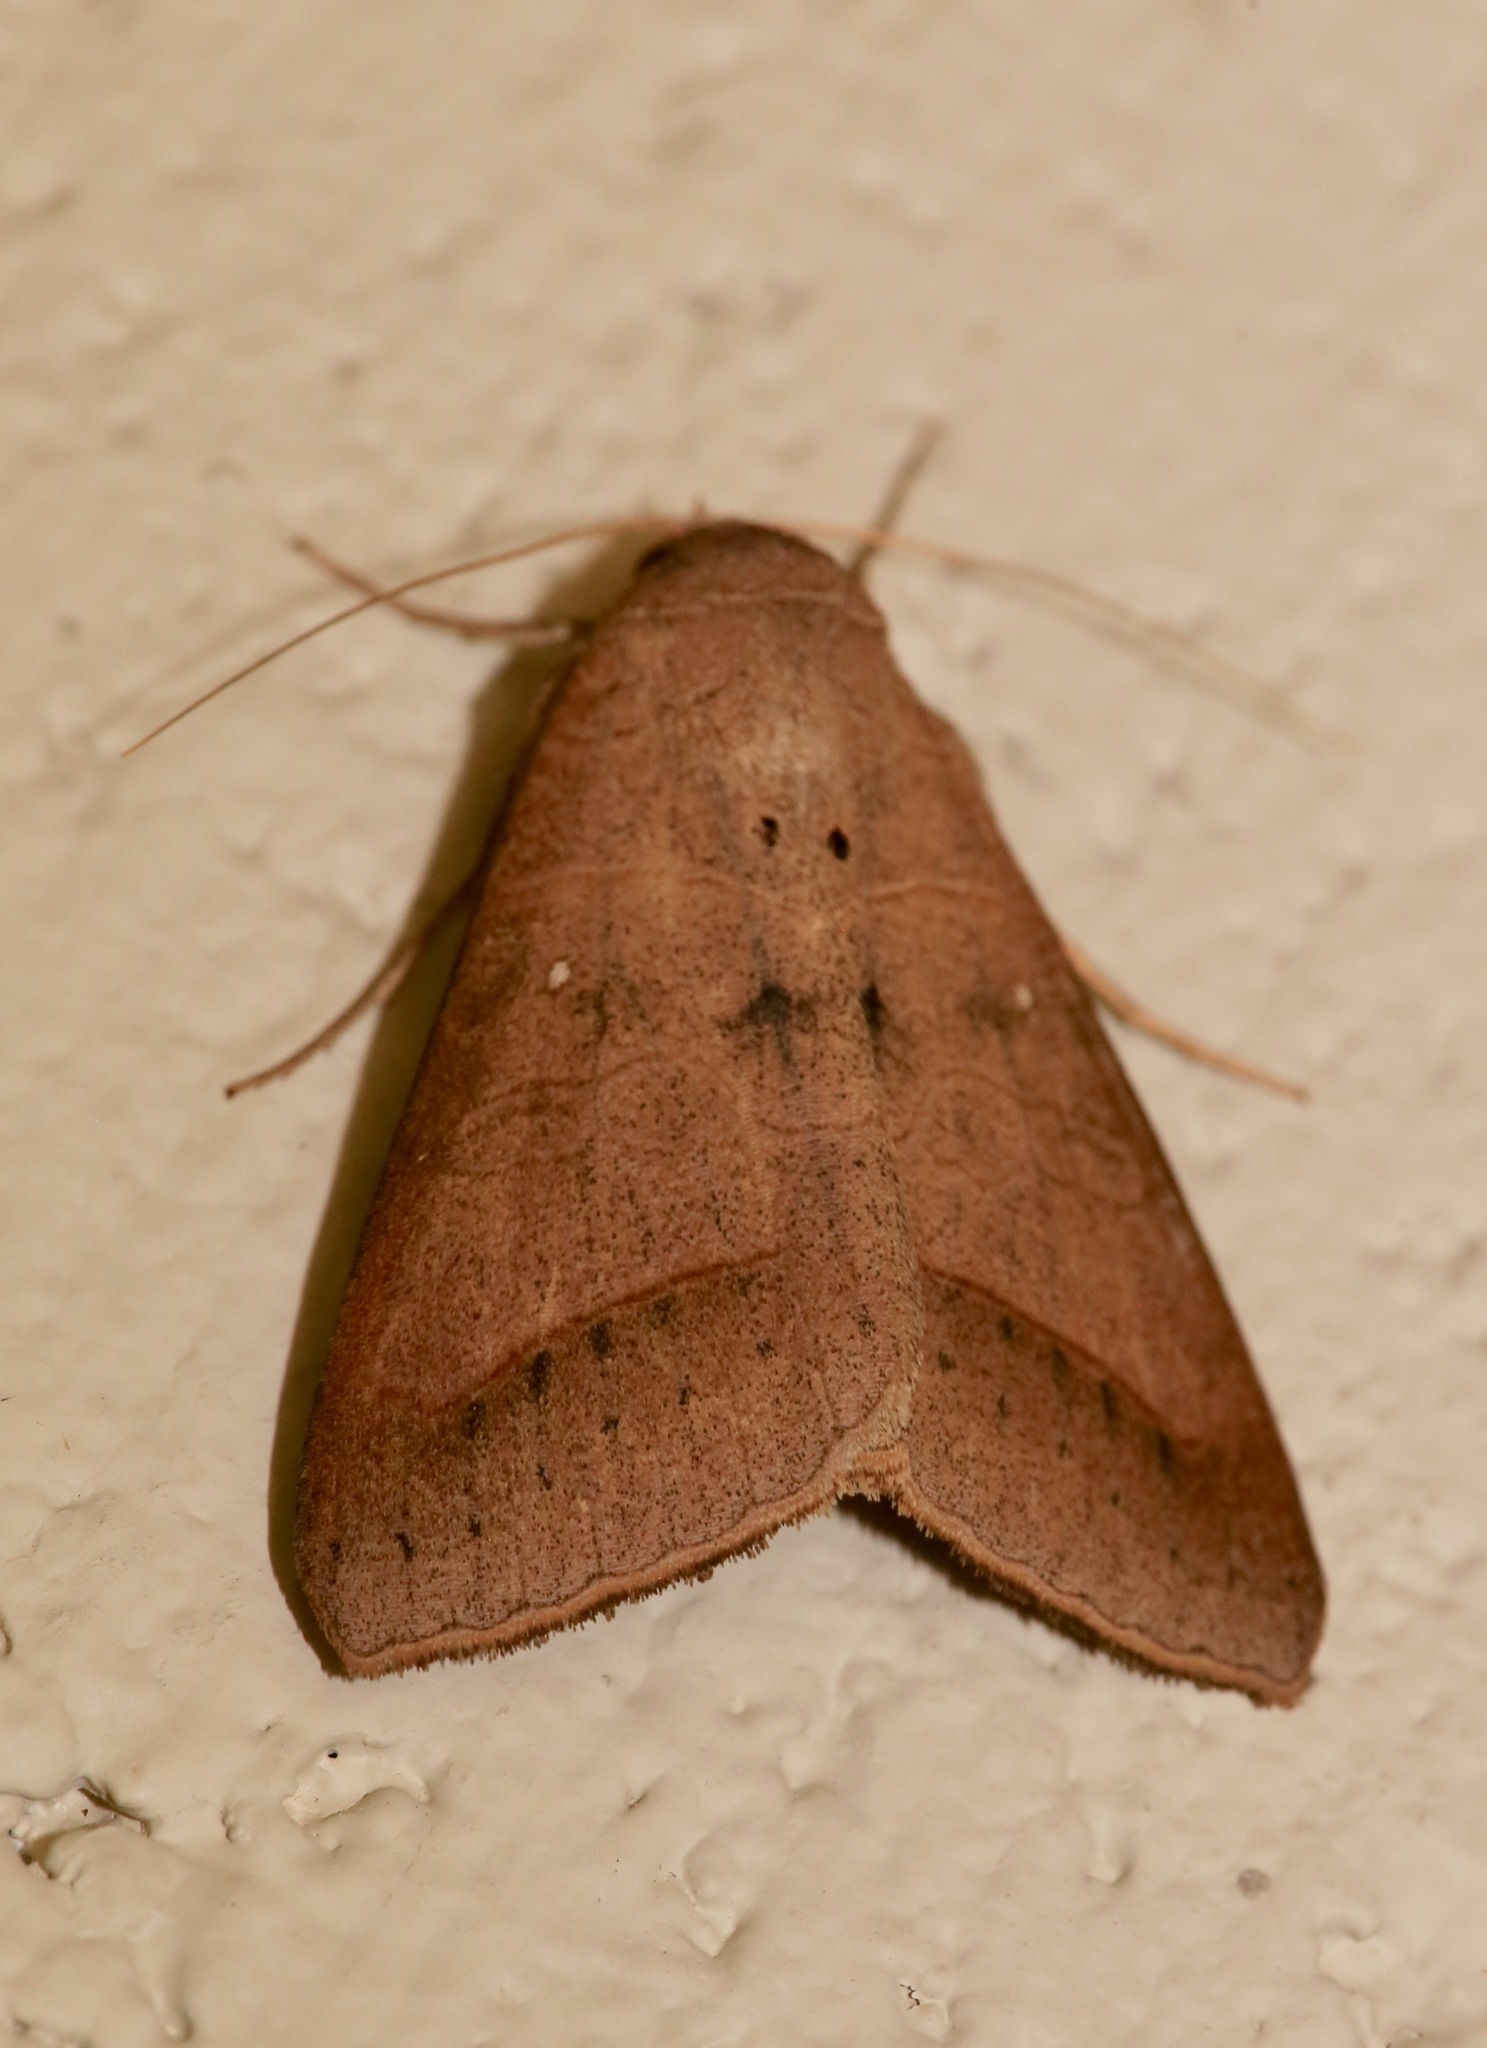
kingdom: Animalia
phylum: Arthropoda
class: Insecta
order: Lepidoptera
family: Erebidae
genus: Mocis
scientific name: Mocis marcida
